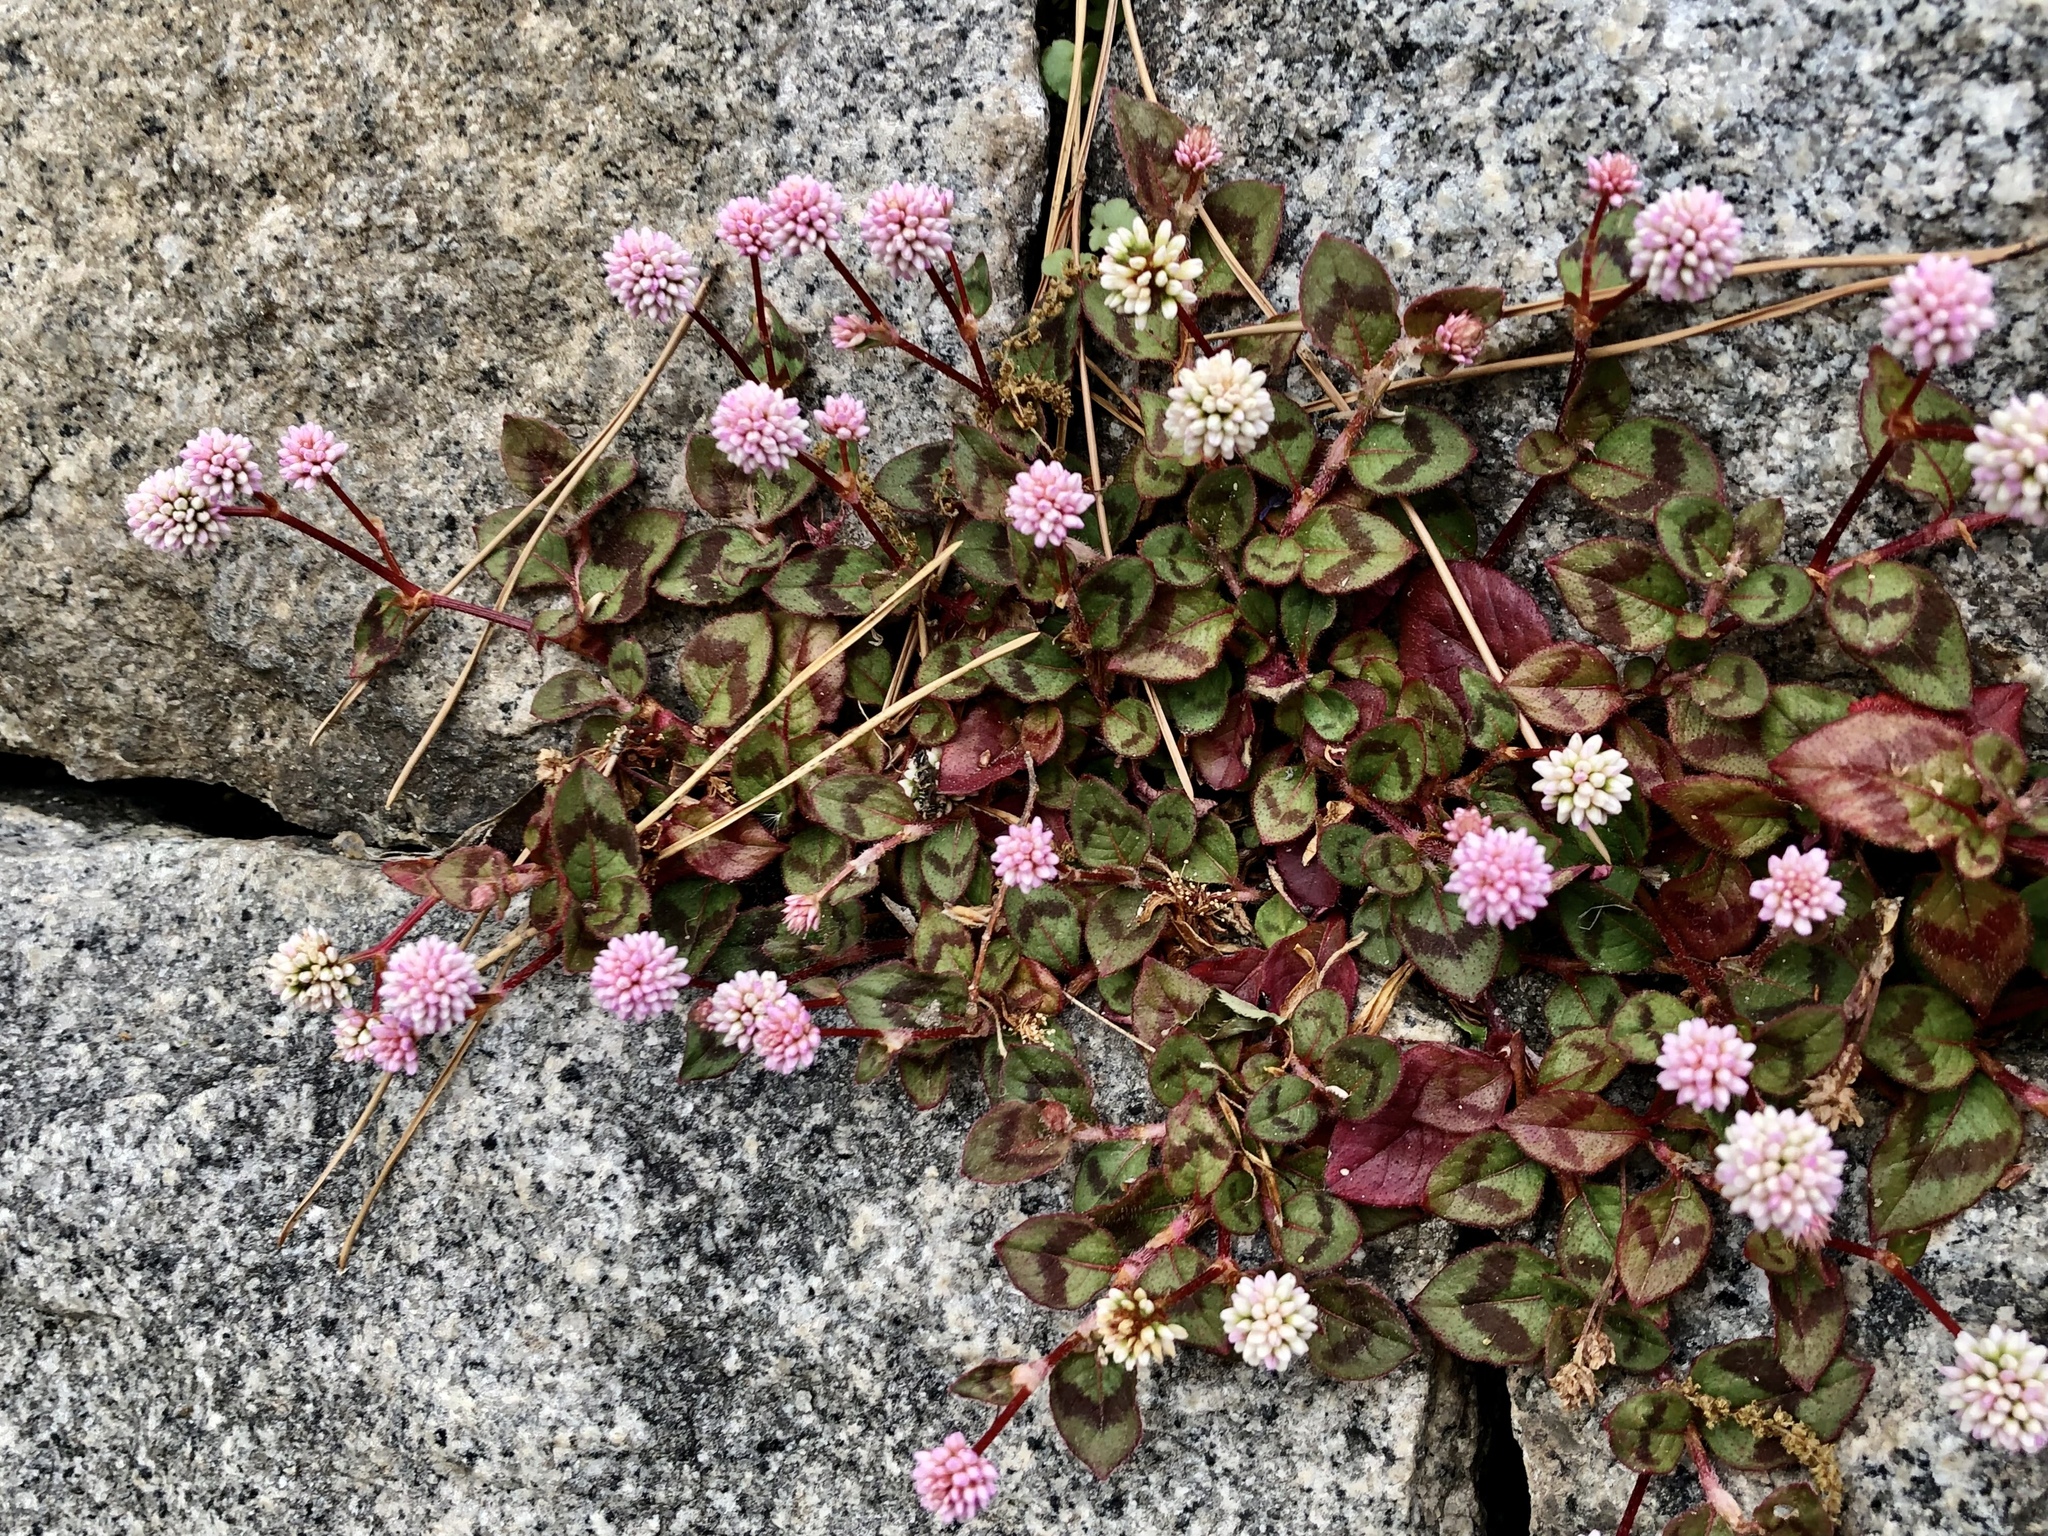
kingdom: Plantae
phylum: Tracheophyta
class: Magnoliopsida
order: Caryophyllales
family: Polygonaceae
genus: Persicaria
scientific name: Persicaria capitata
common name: Pinkhead smartweed
